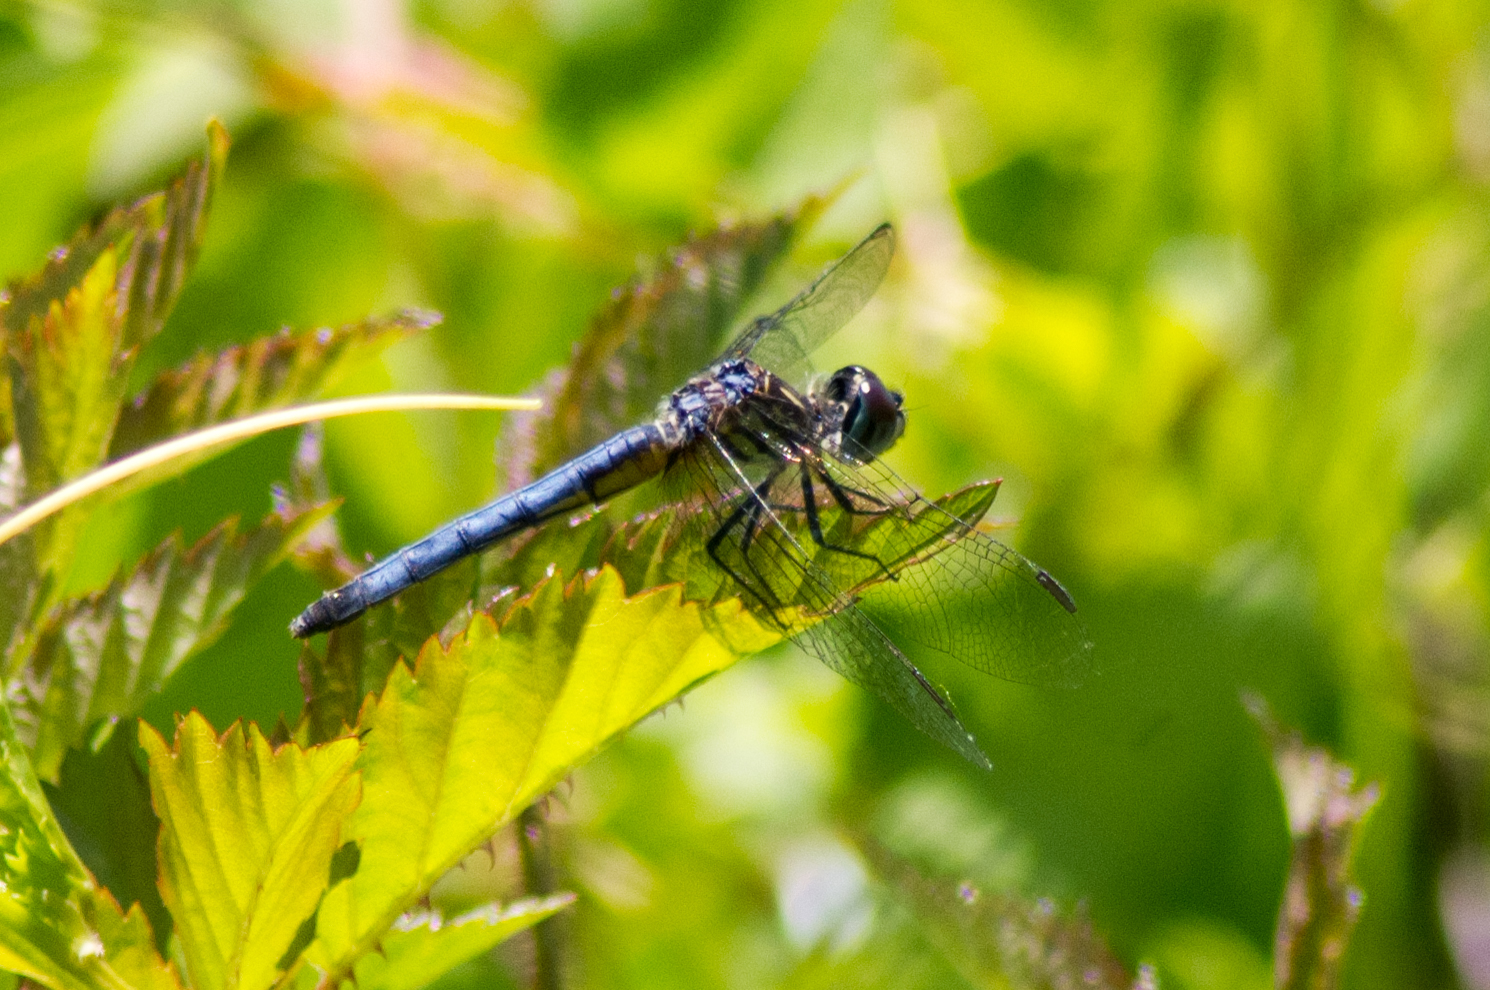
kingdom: Animalia
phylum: Arthropoda
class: Insecta
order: Odonata
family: Libellulidae
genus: Pachydiplax
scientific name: Pachydiplax longipennis
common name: Blue dasher
